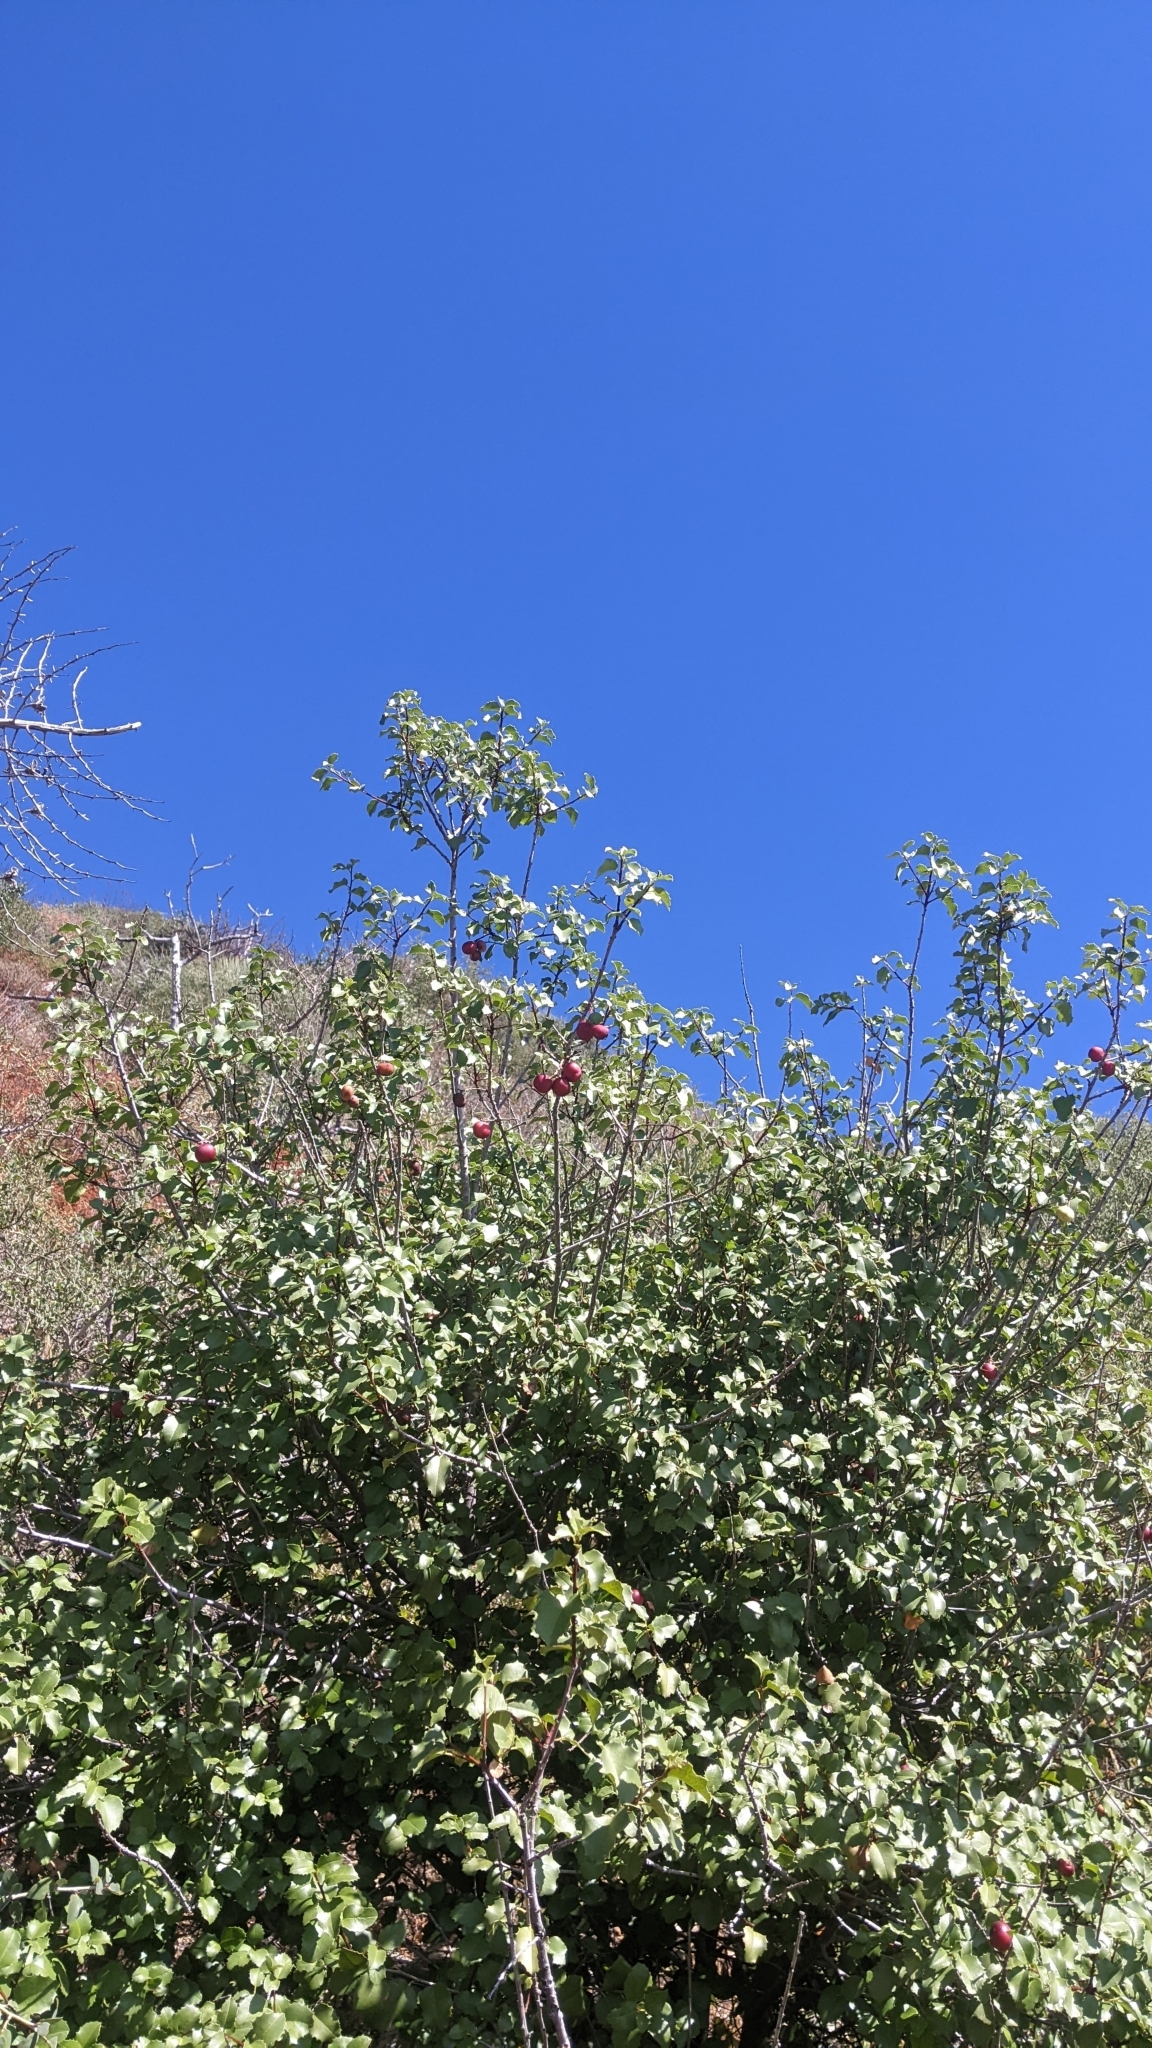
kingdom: Plantae
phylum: Tracheophyta
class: Magnoliopsida
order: Rosales
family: Rosaceae
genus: Prunus
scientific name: Prunus ilicifolia
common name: Hollyleaf cherry
